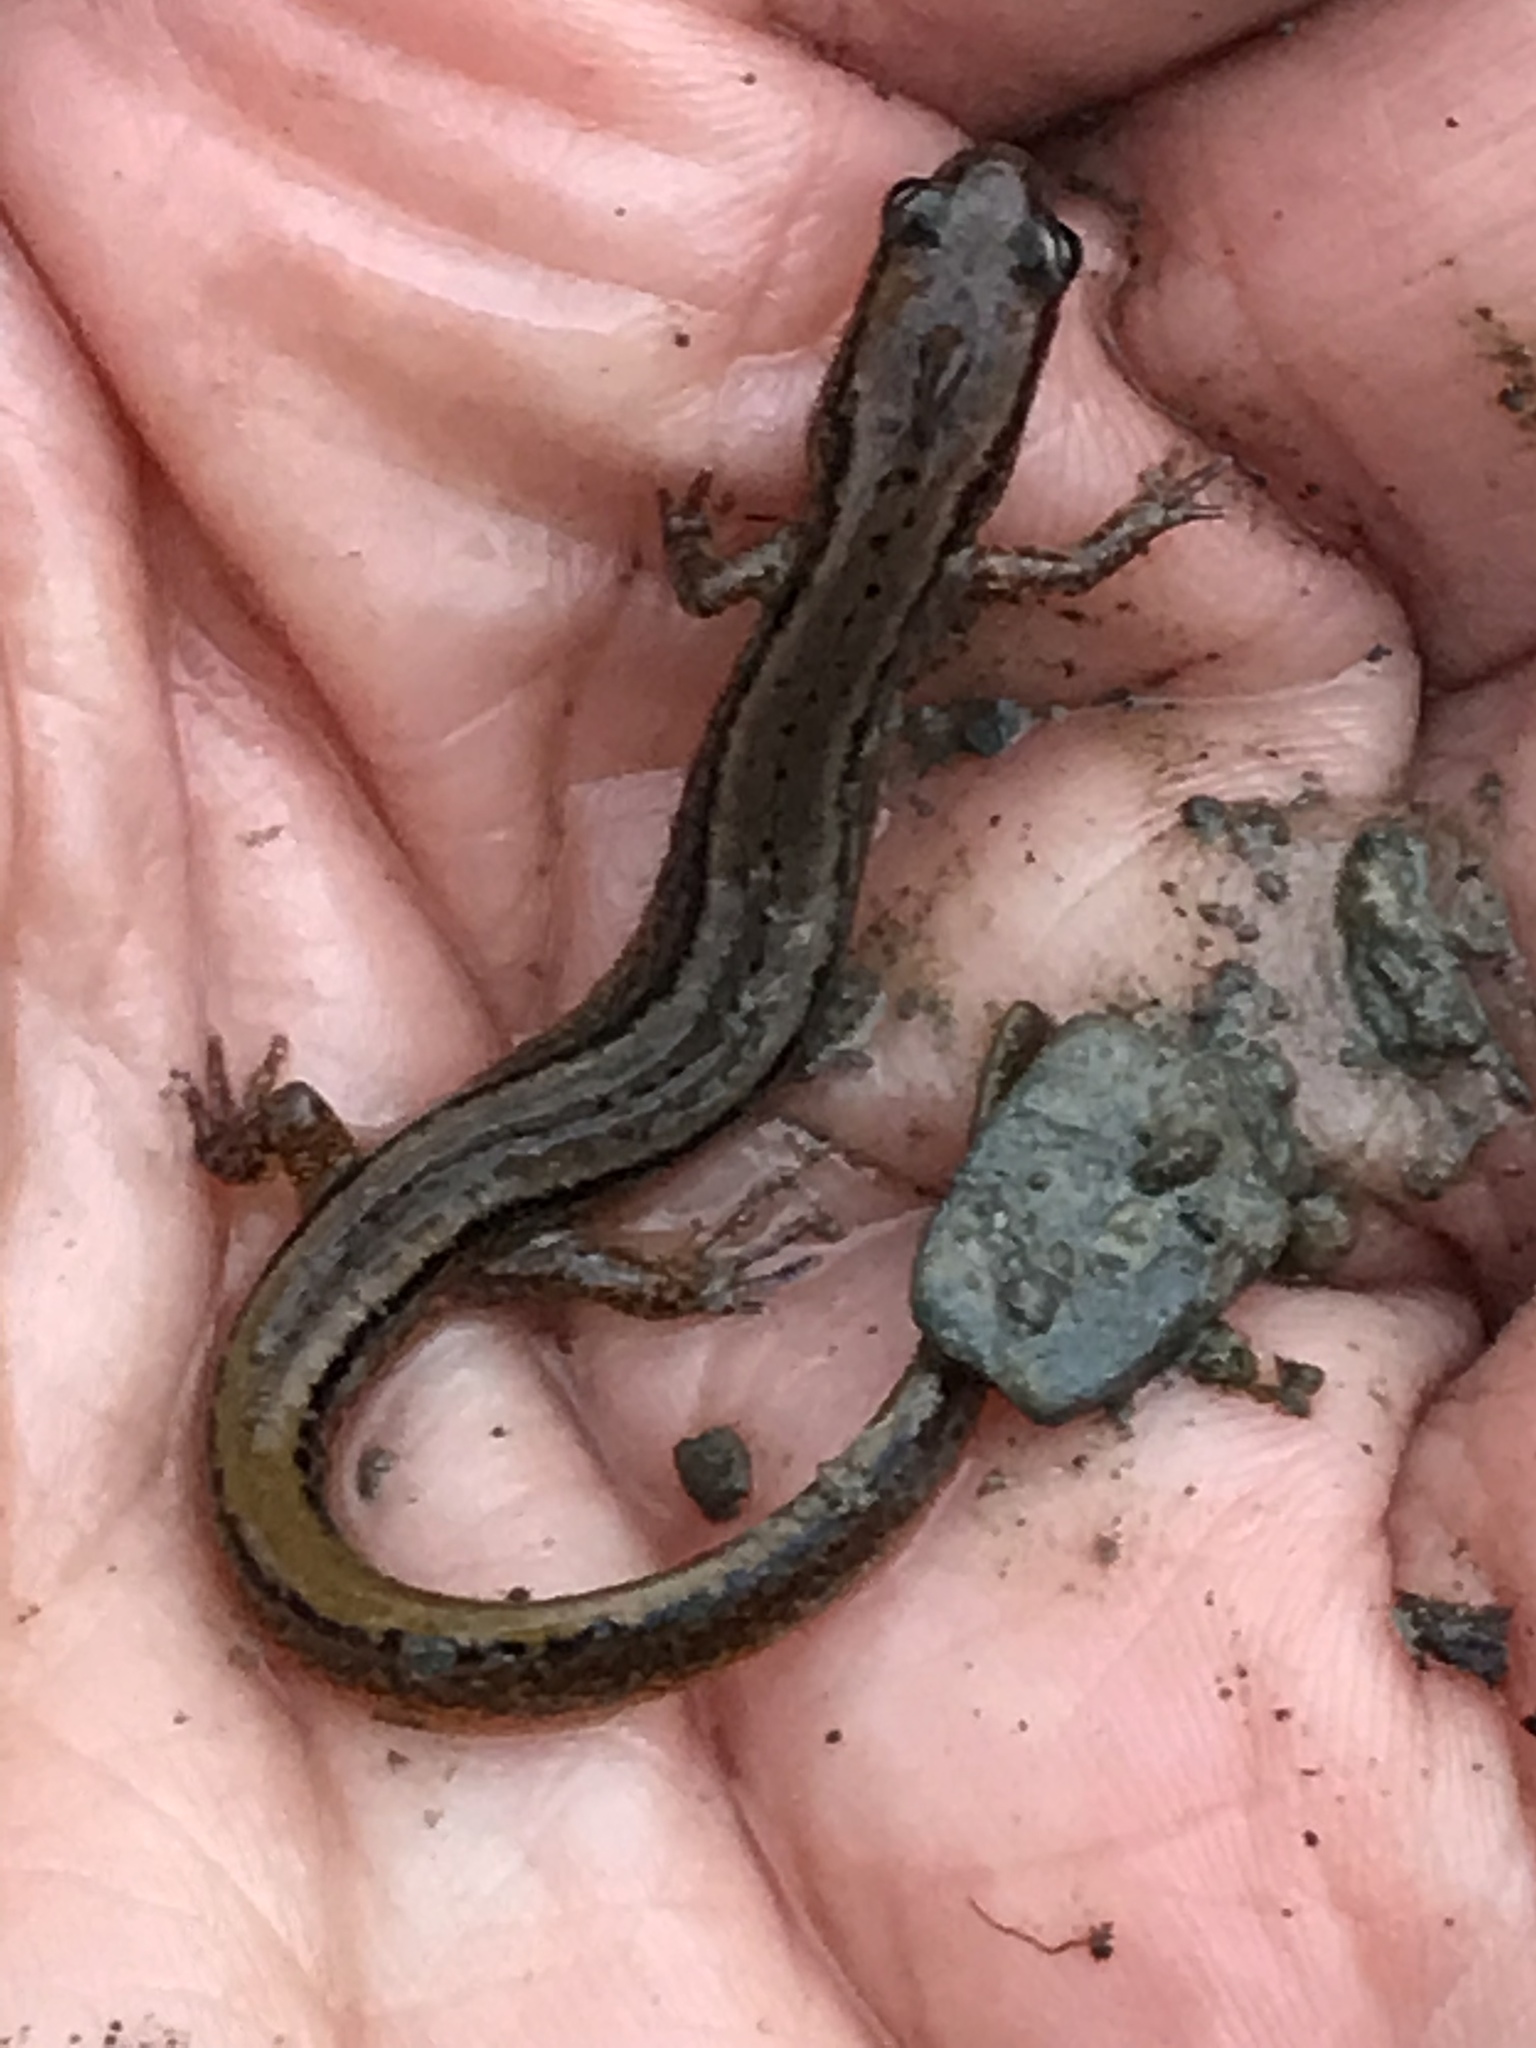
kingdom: Animalia
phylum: Chordata
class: Amphibia
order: Caudata
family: Plethodontidae
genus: Eurycea
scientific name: Eurycea bislineata
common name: Northern two-lined salamander
